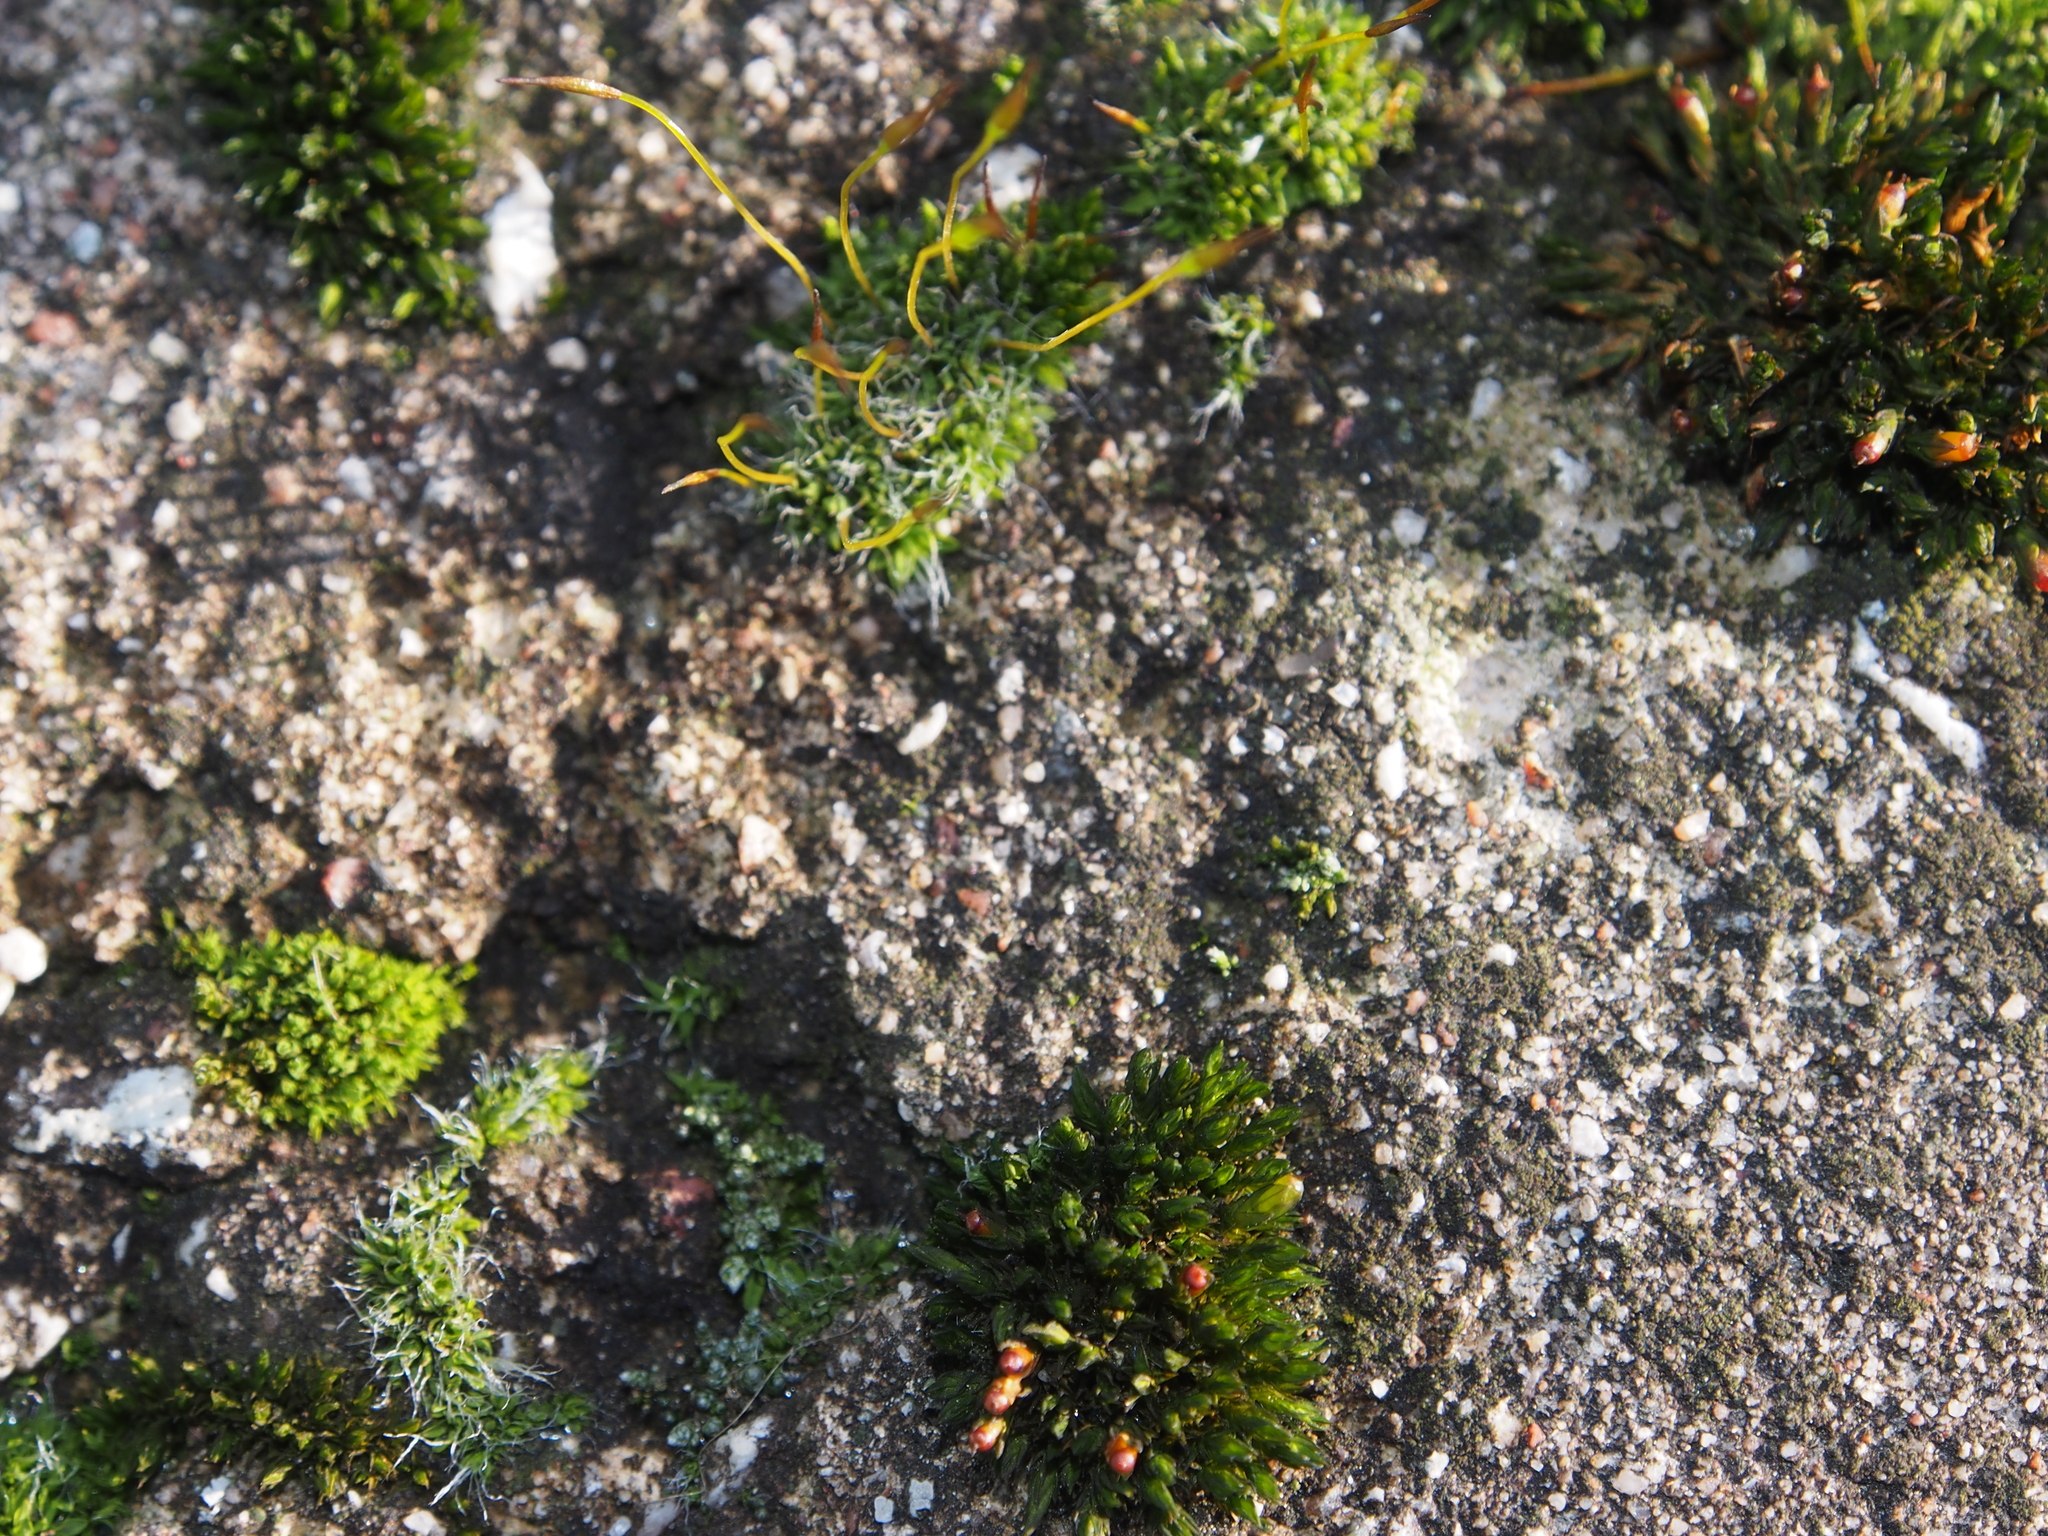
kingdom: Plantae
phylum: Bryophyta
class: Bryopsida
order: Pottiales
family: Pottiaceae
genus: Tortula
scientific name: Tortula muralis
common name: Wall screw-moss
